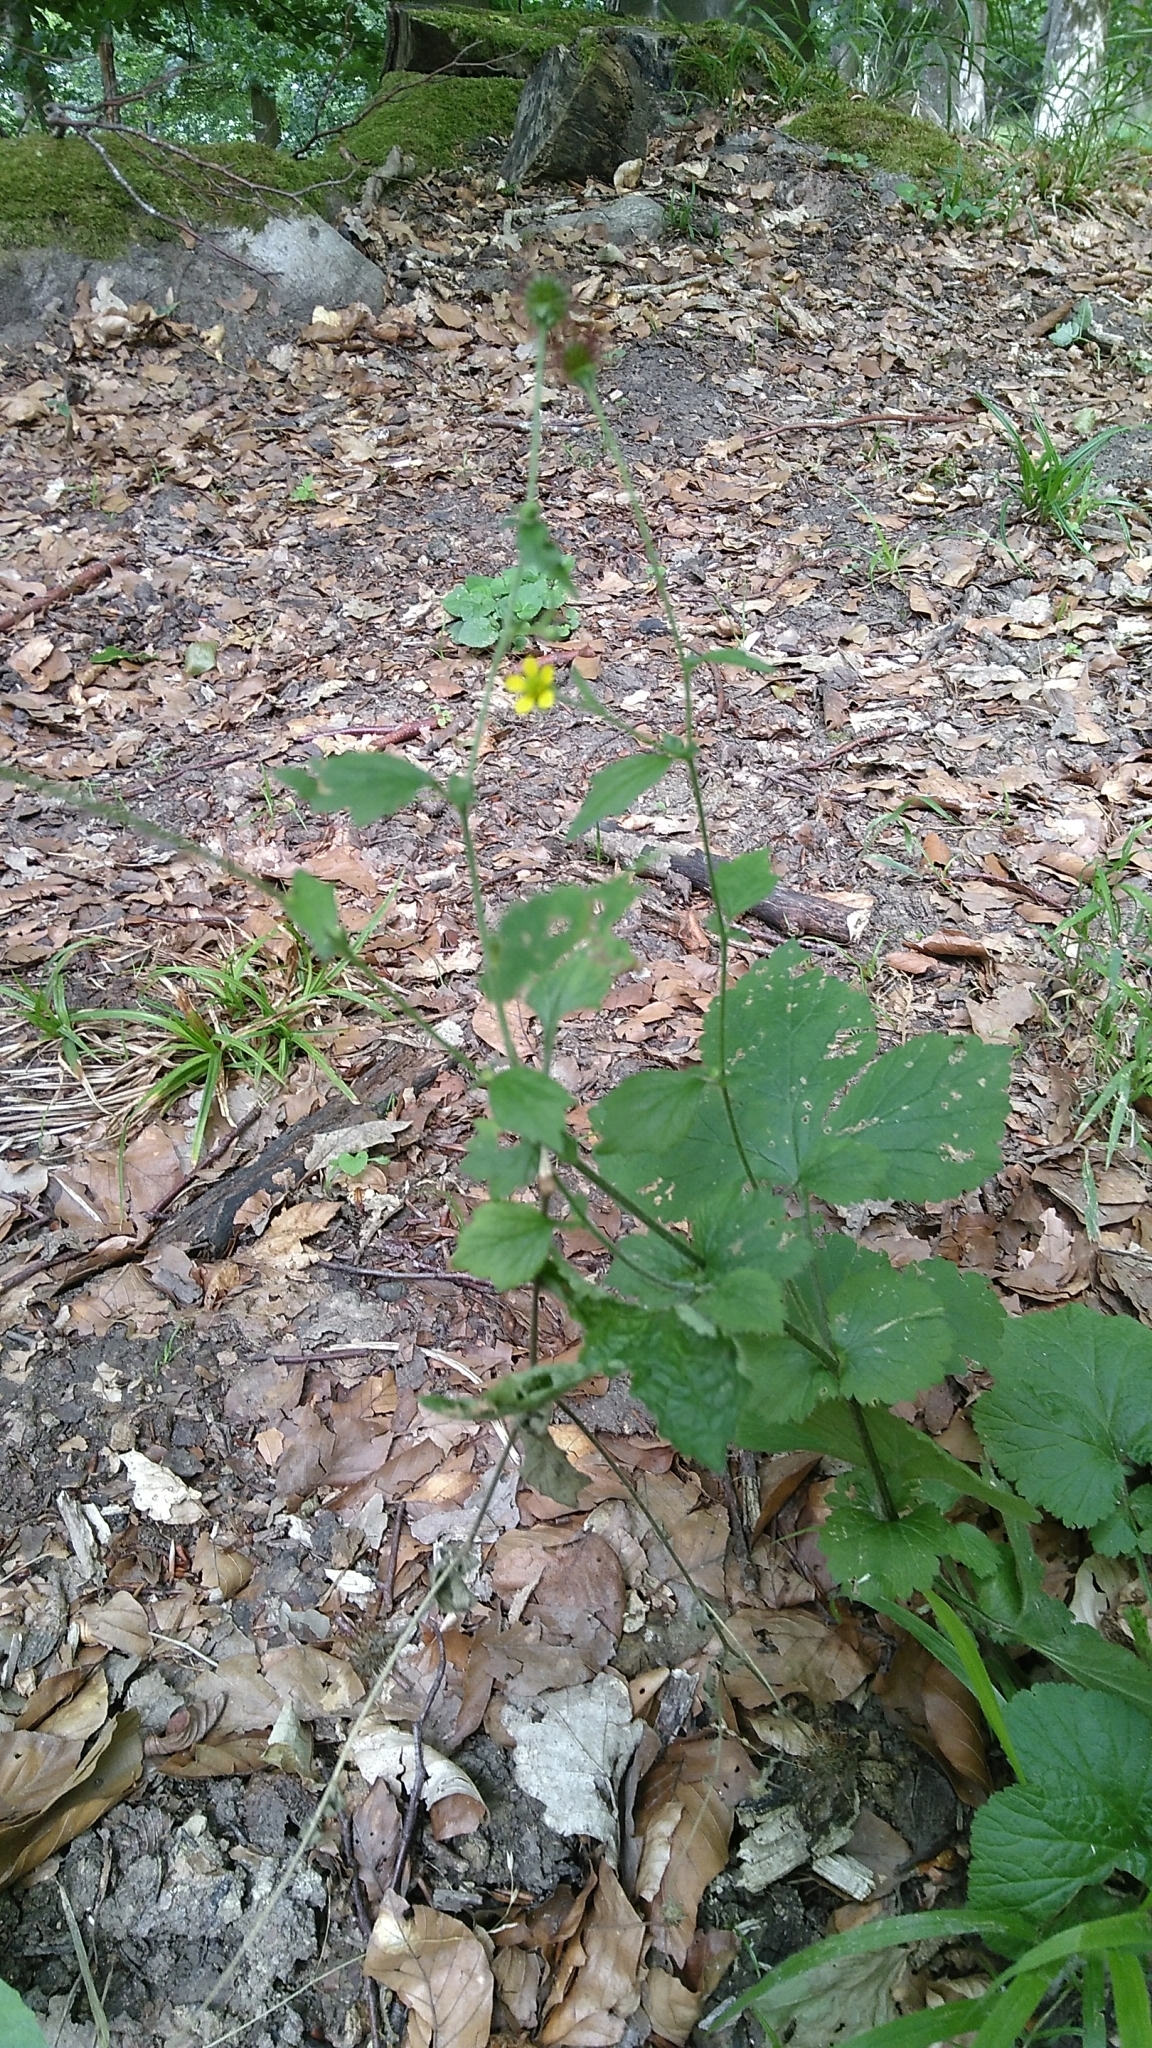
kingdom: Plantae
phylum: Tracheophyta
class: Magnoliopsida
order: Rosales
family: Rosaceae
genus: Geum
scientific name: Geum urbanum
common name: Wood avens
